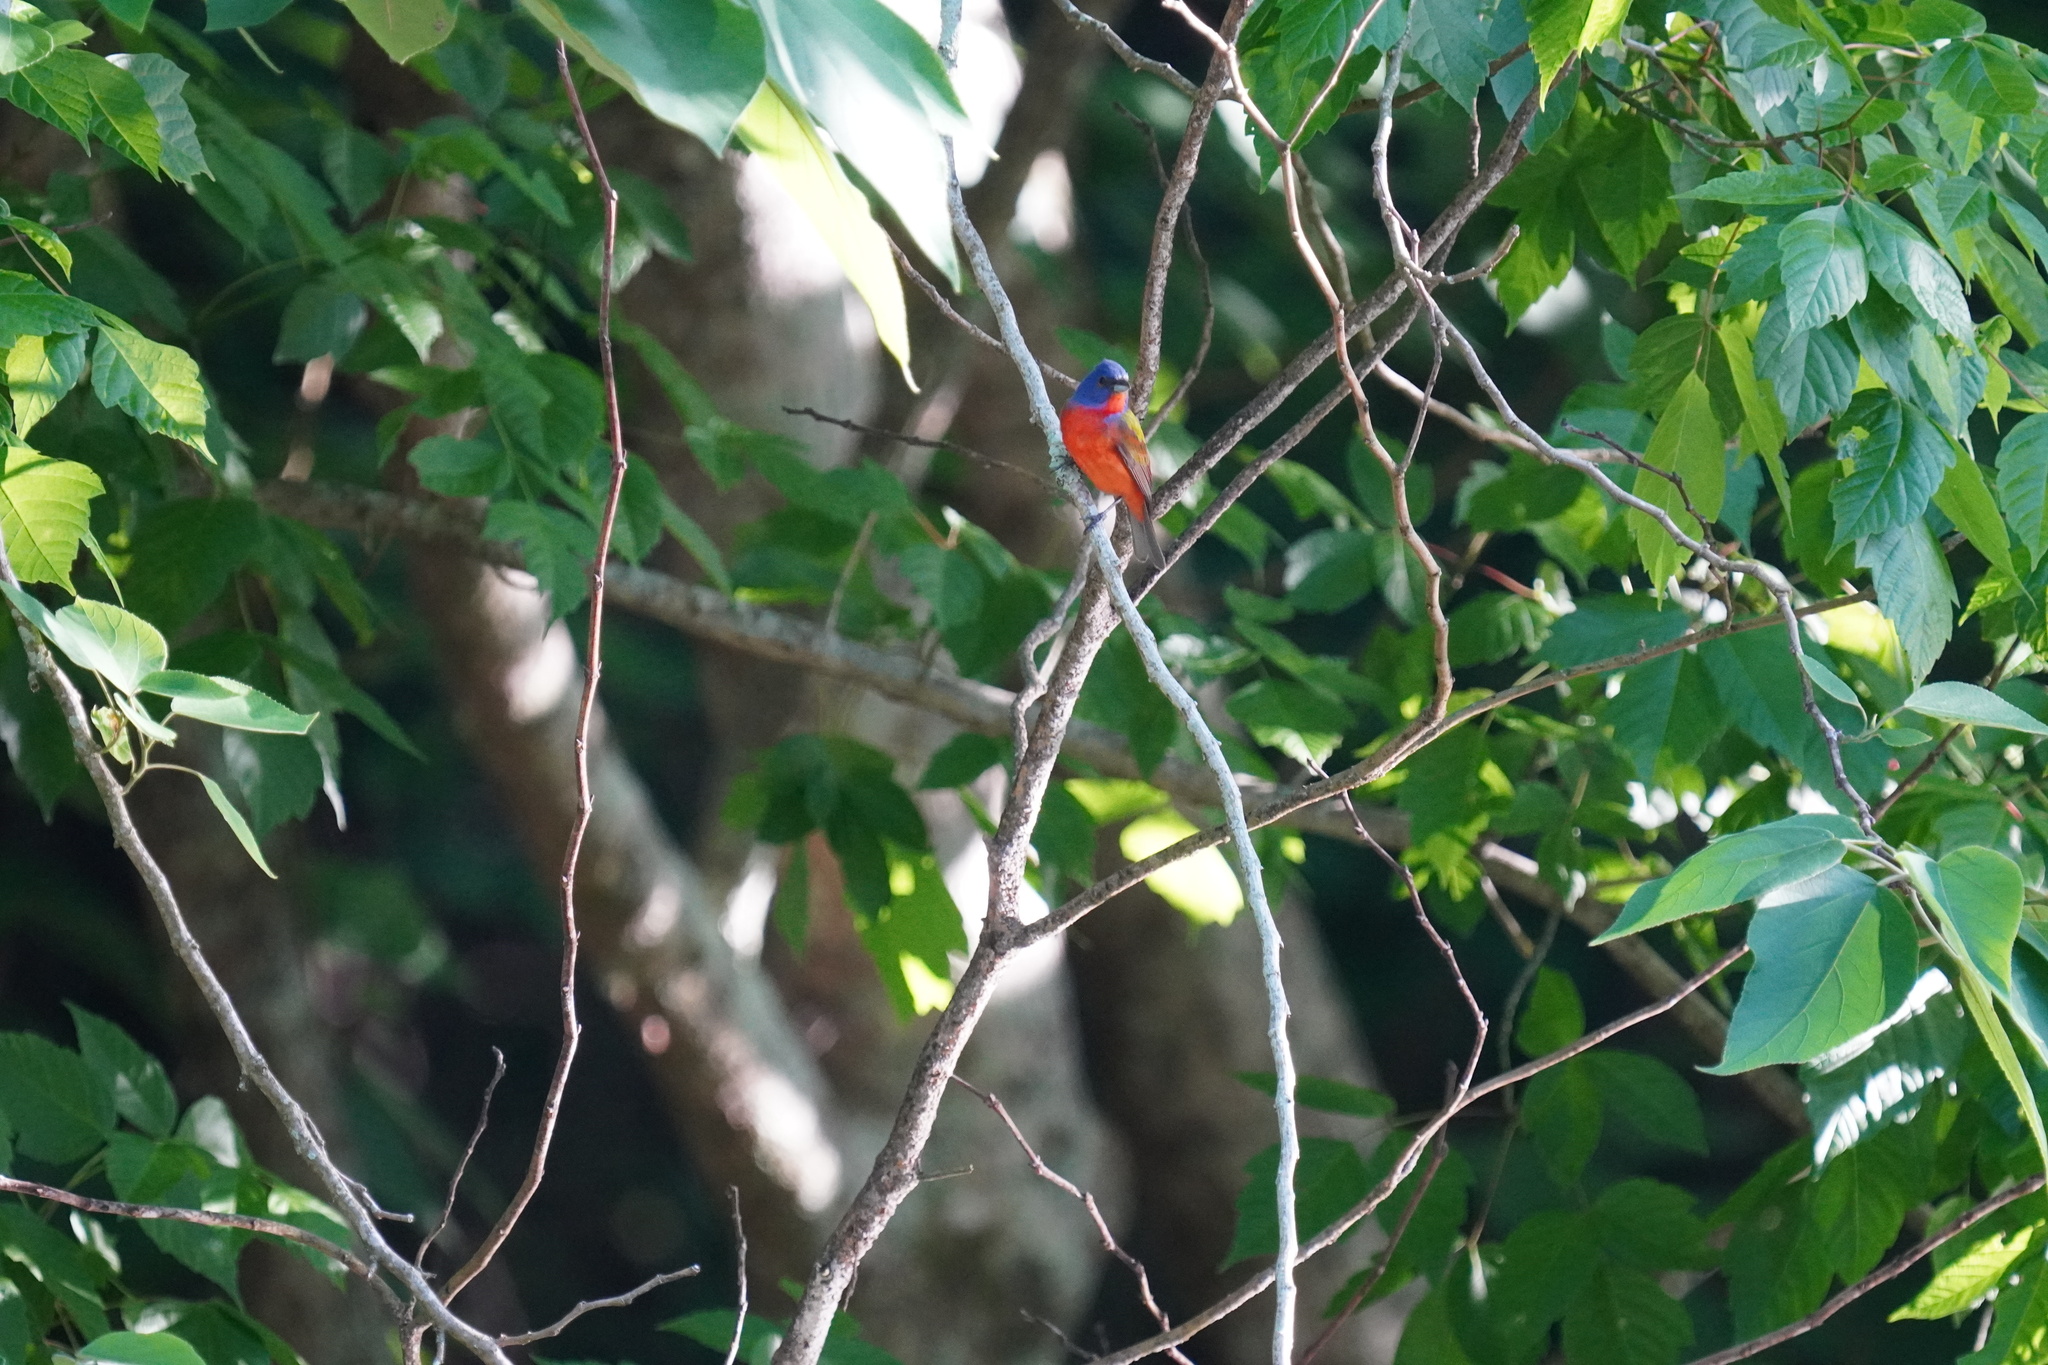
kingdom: Animalia
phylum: Chordata
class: Aves
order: Passeriformes
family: Cardinalidae
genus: Passerina
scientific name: Passerina ciris
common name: Painted bunting
